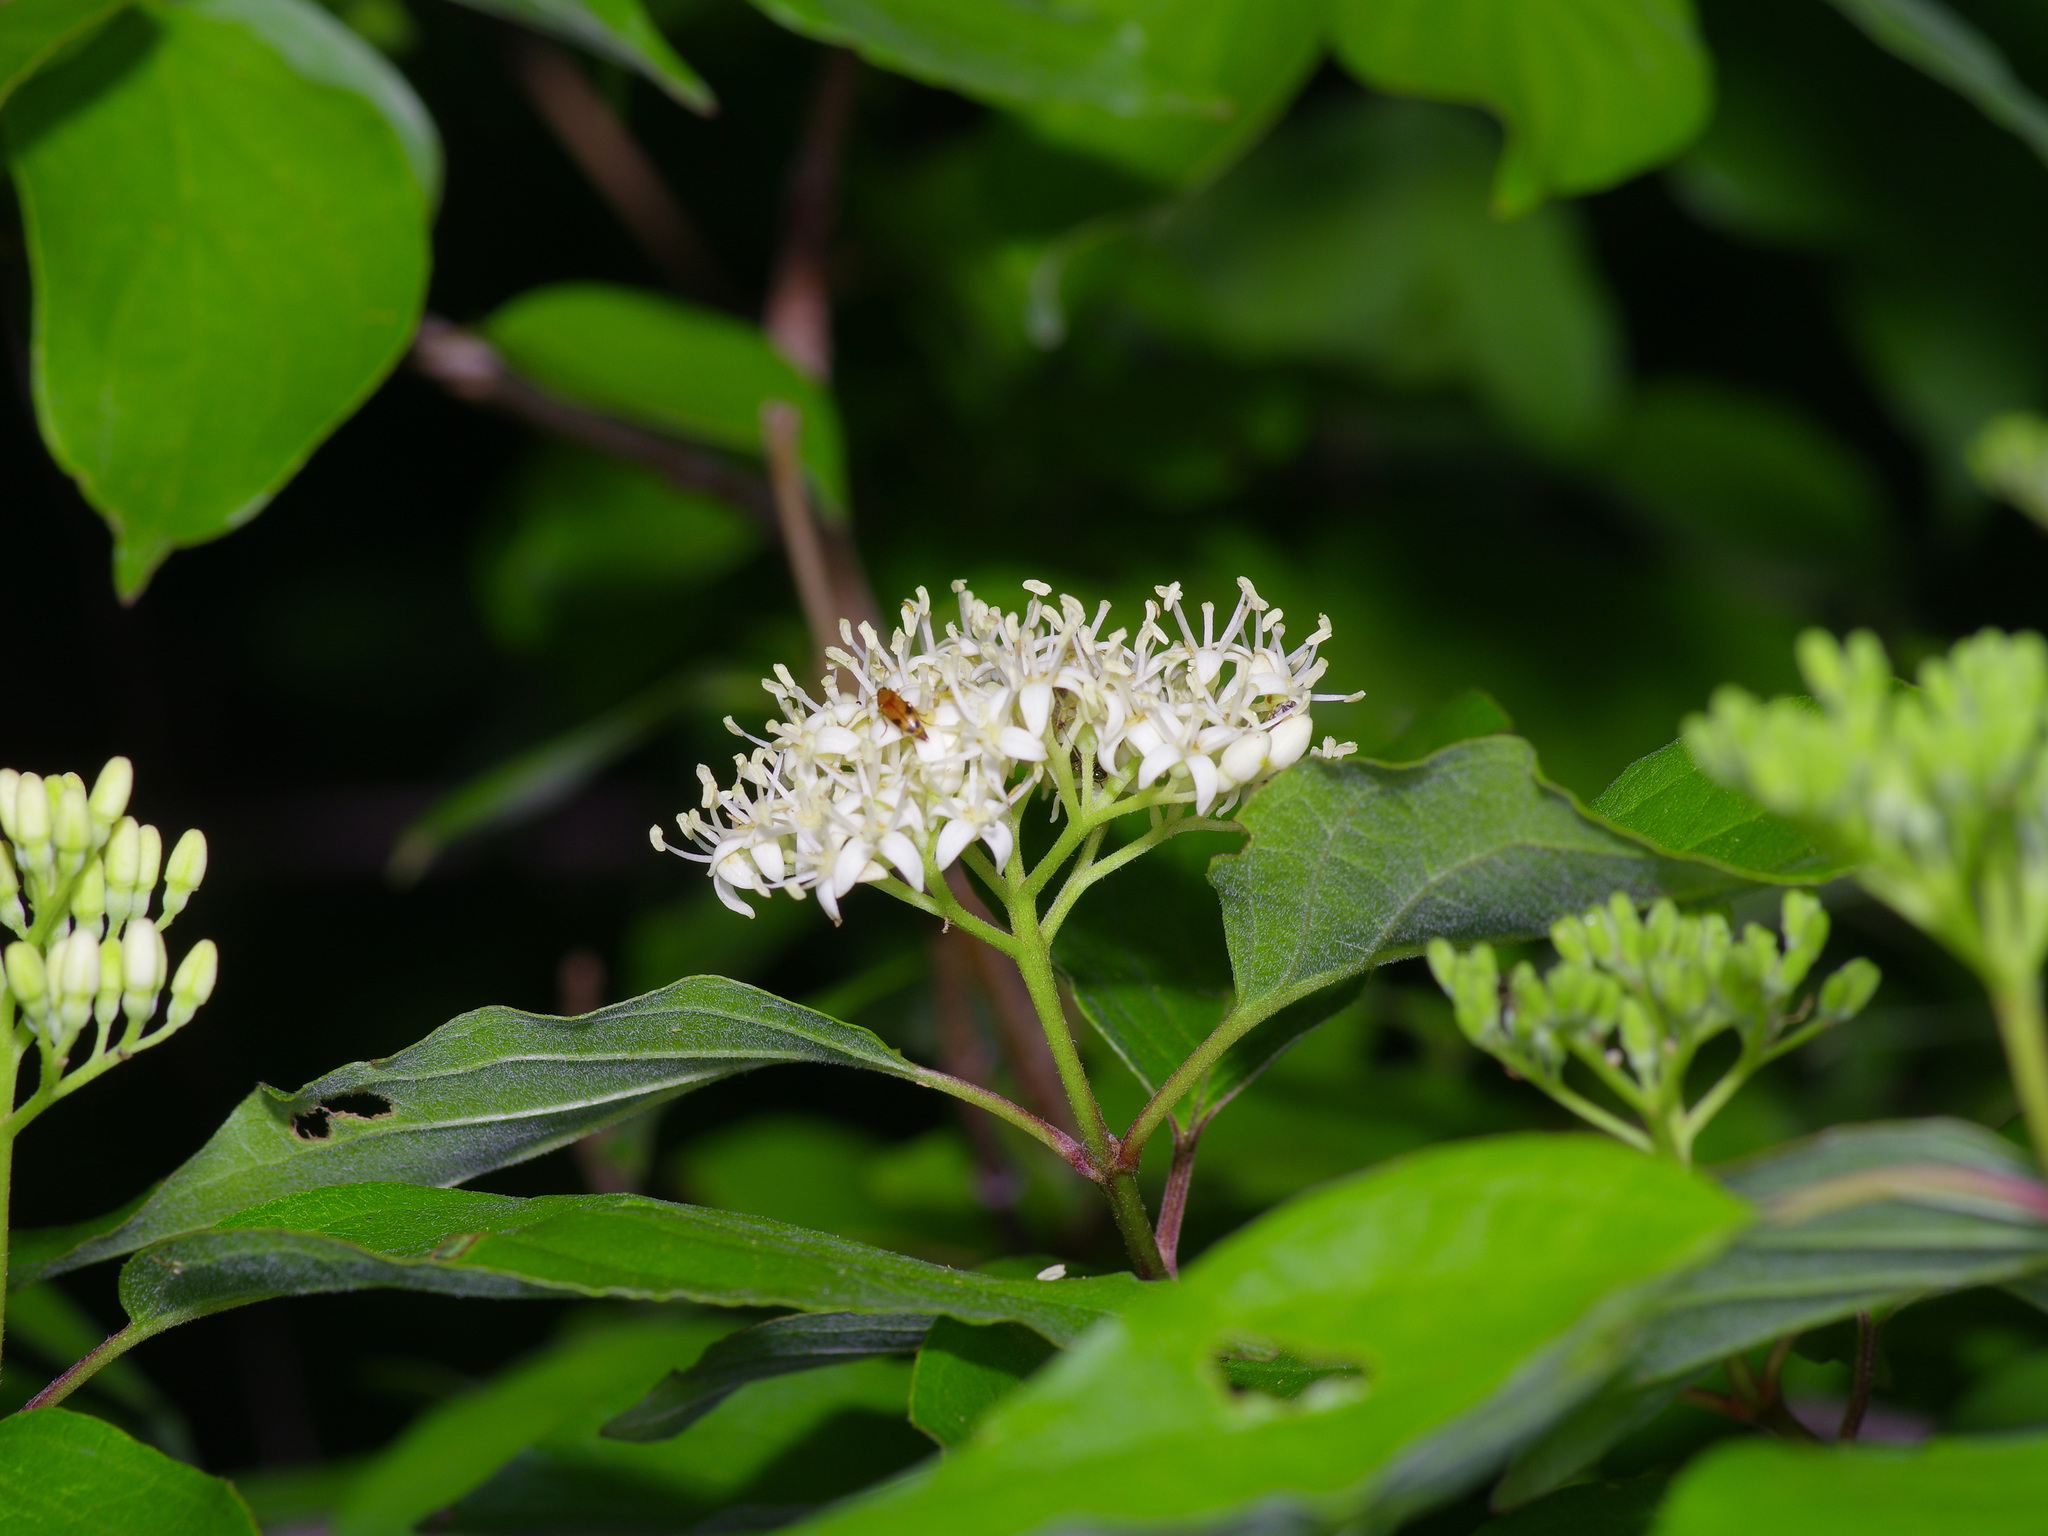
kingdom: Plantae
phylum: Tracheophyta
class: Magnoliopsida
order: Cornales
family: Cornaceae
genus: Cornus
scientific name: Cornus drummondii
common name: Rough-leaf dogwood
